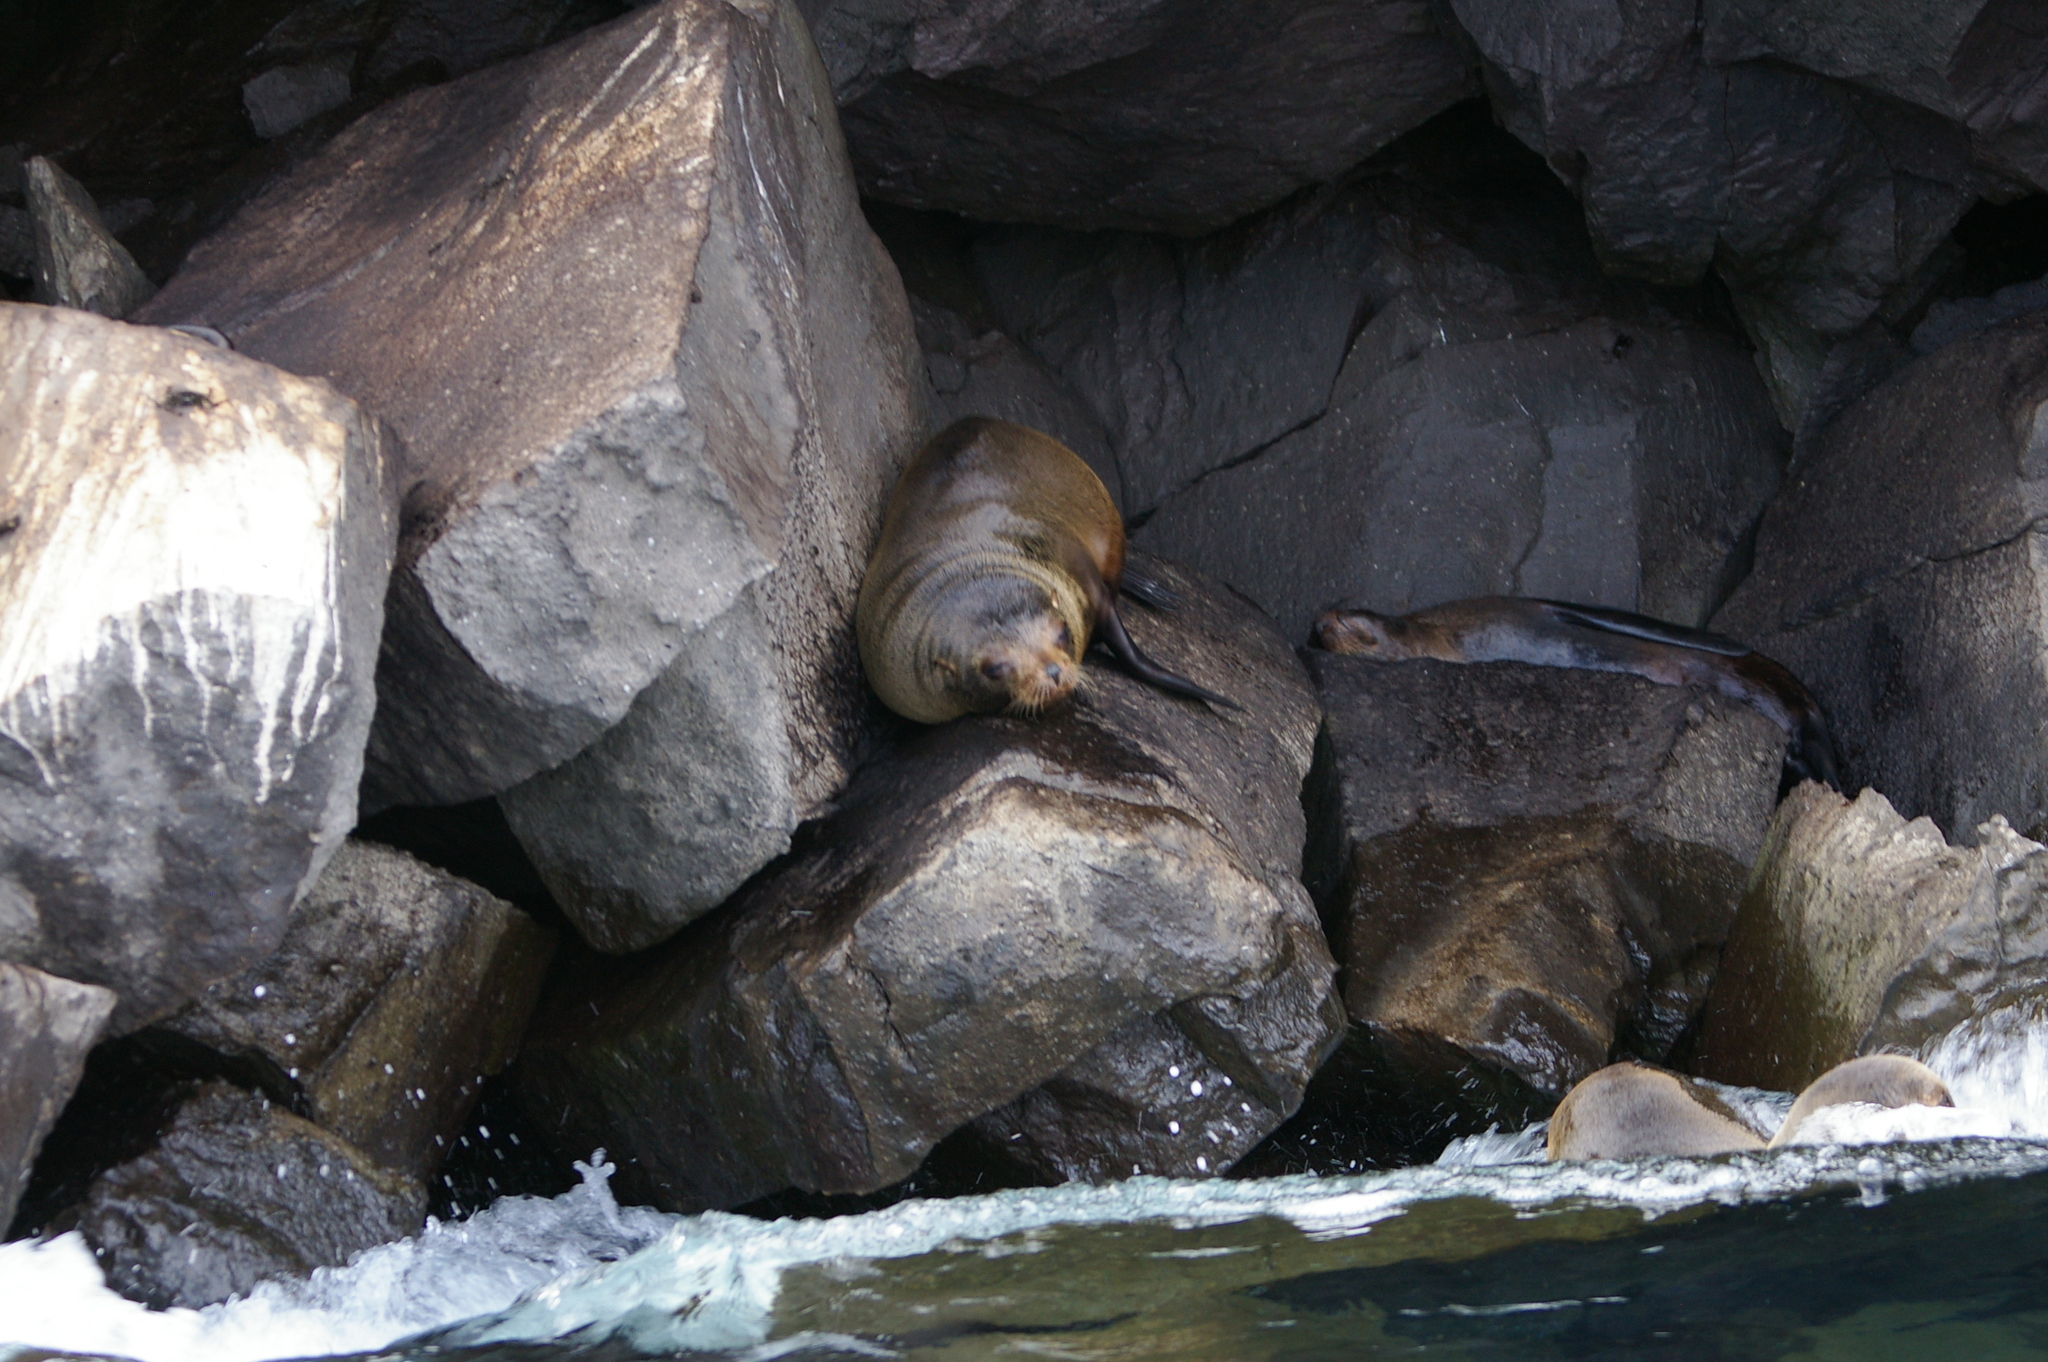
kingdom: Animalia
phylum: Chordata
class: Mammalia
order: Carnivora
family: Otariidae
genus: Zalophus
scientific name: Zalophus wollebaeki
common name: Galapagos sea lion
